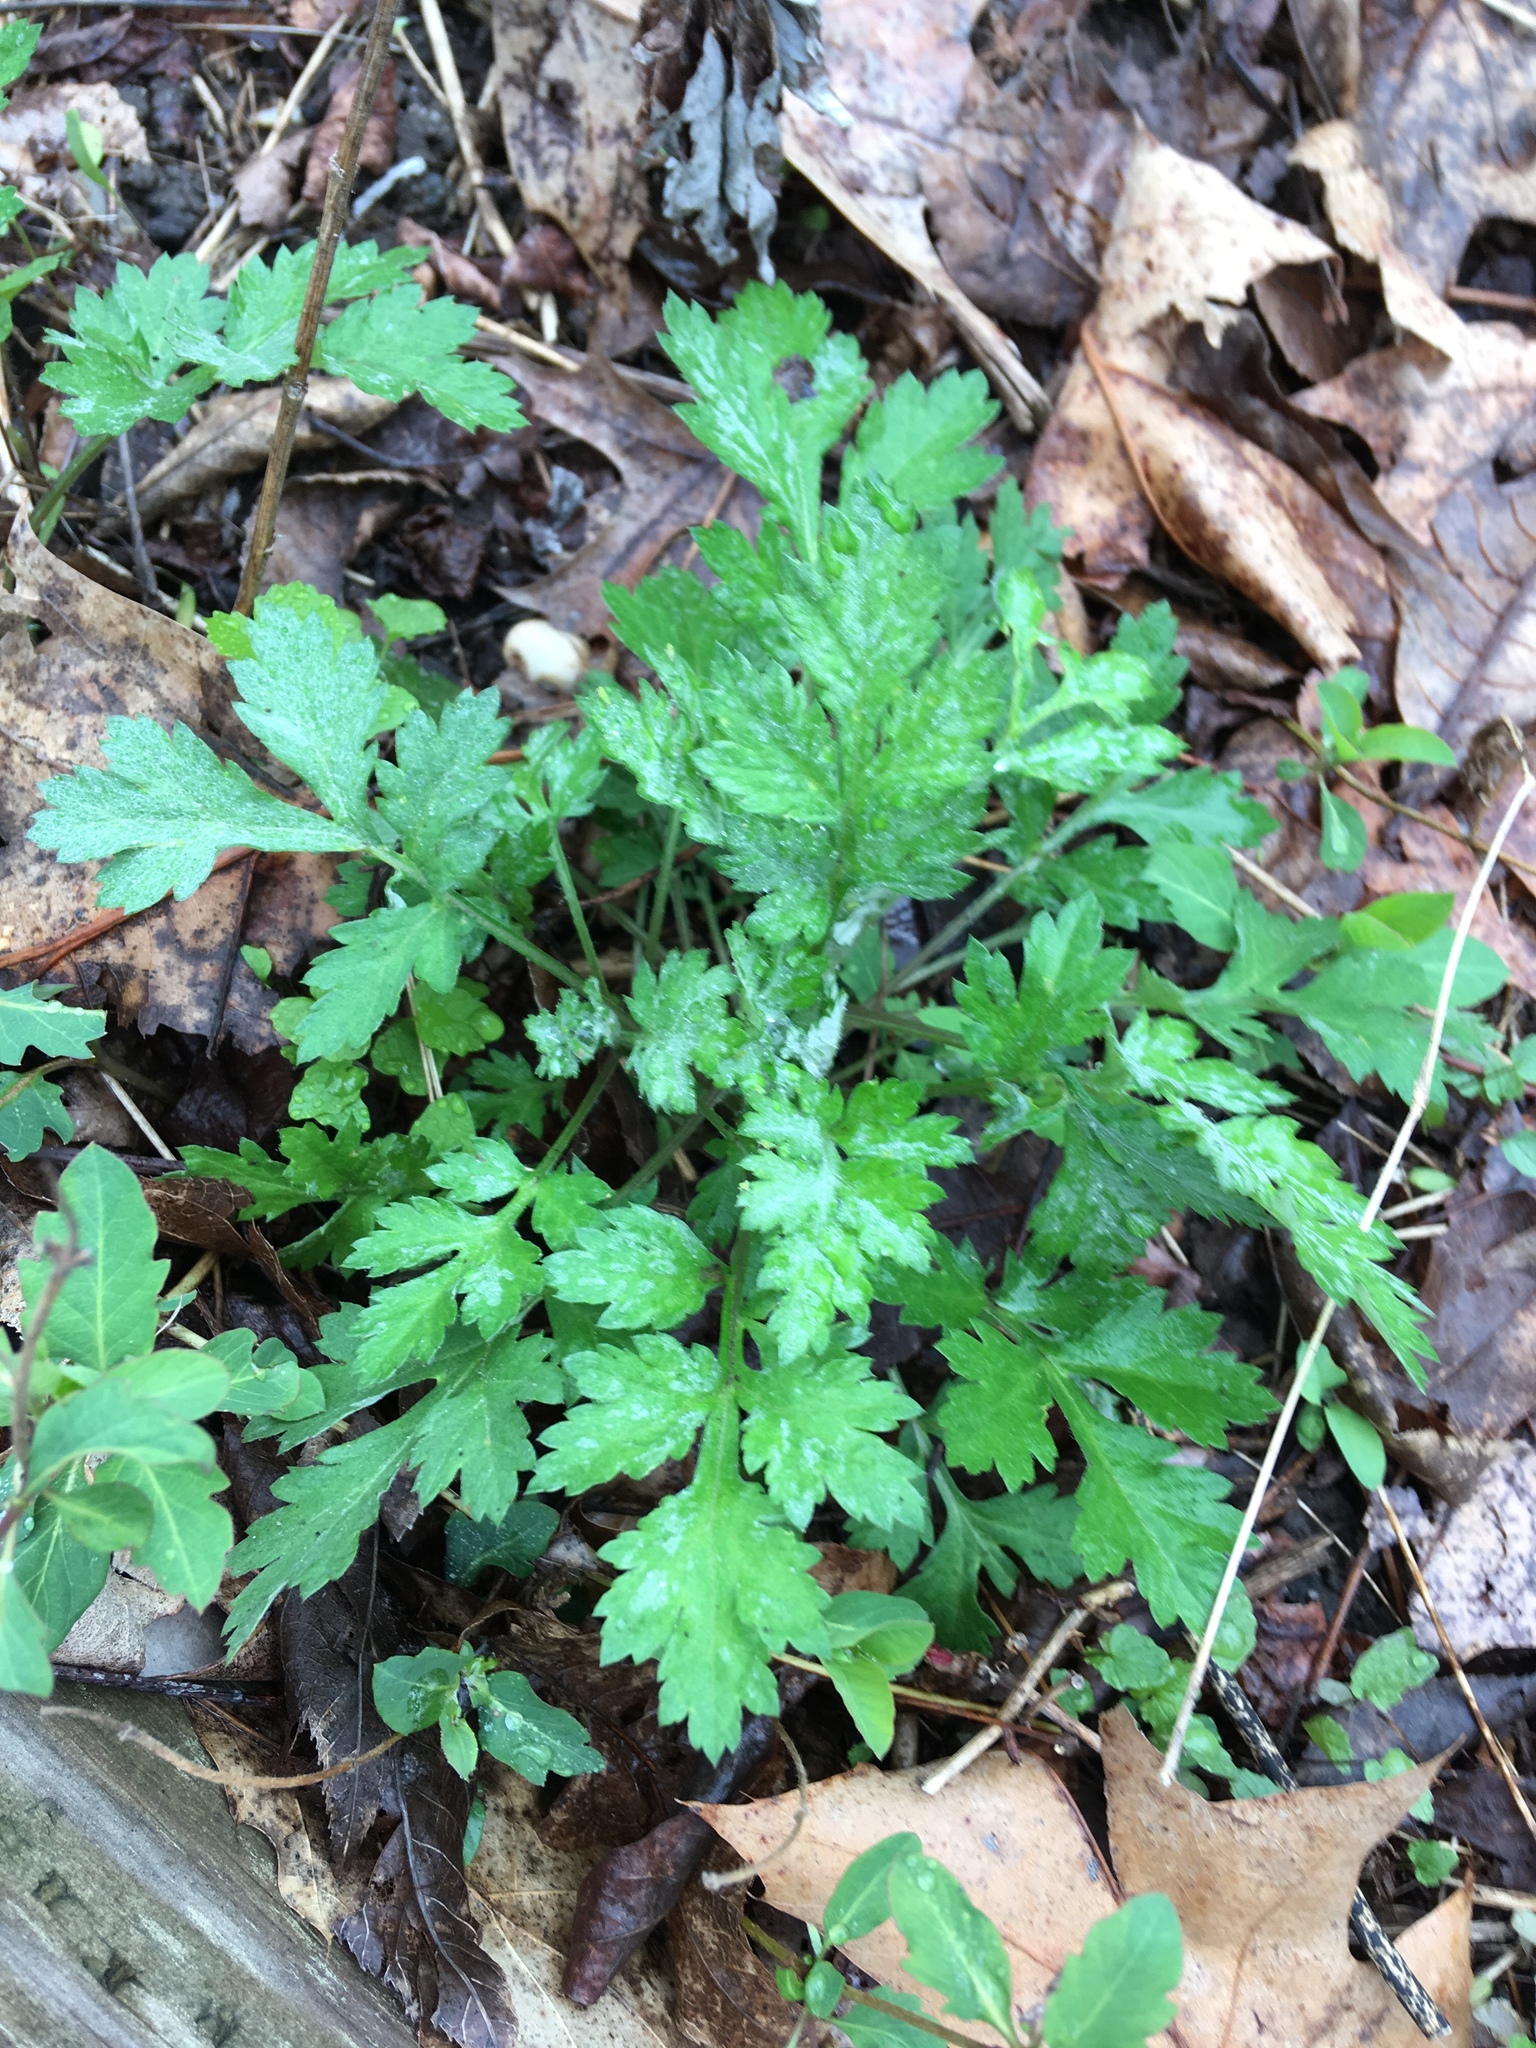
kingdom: Plantae
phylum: Tracheophyta
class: Magnoliopsida
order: Asterales
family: Asteraceae
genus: Artemisia
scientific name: Artemisia vulgaris
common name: Mugwort
